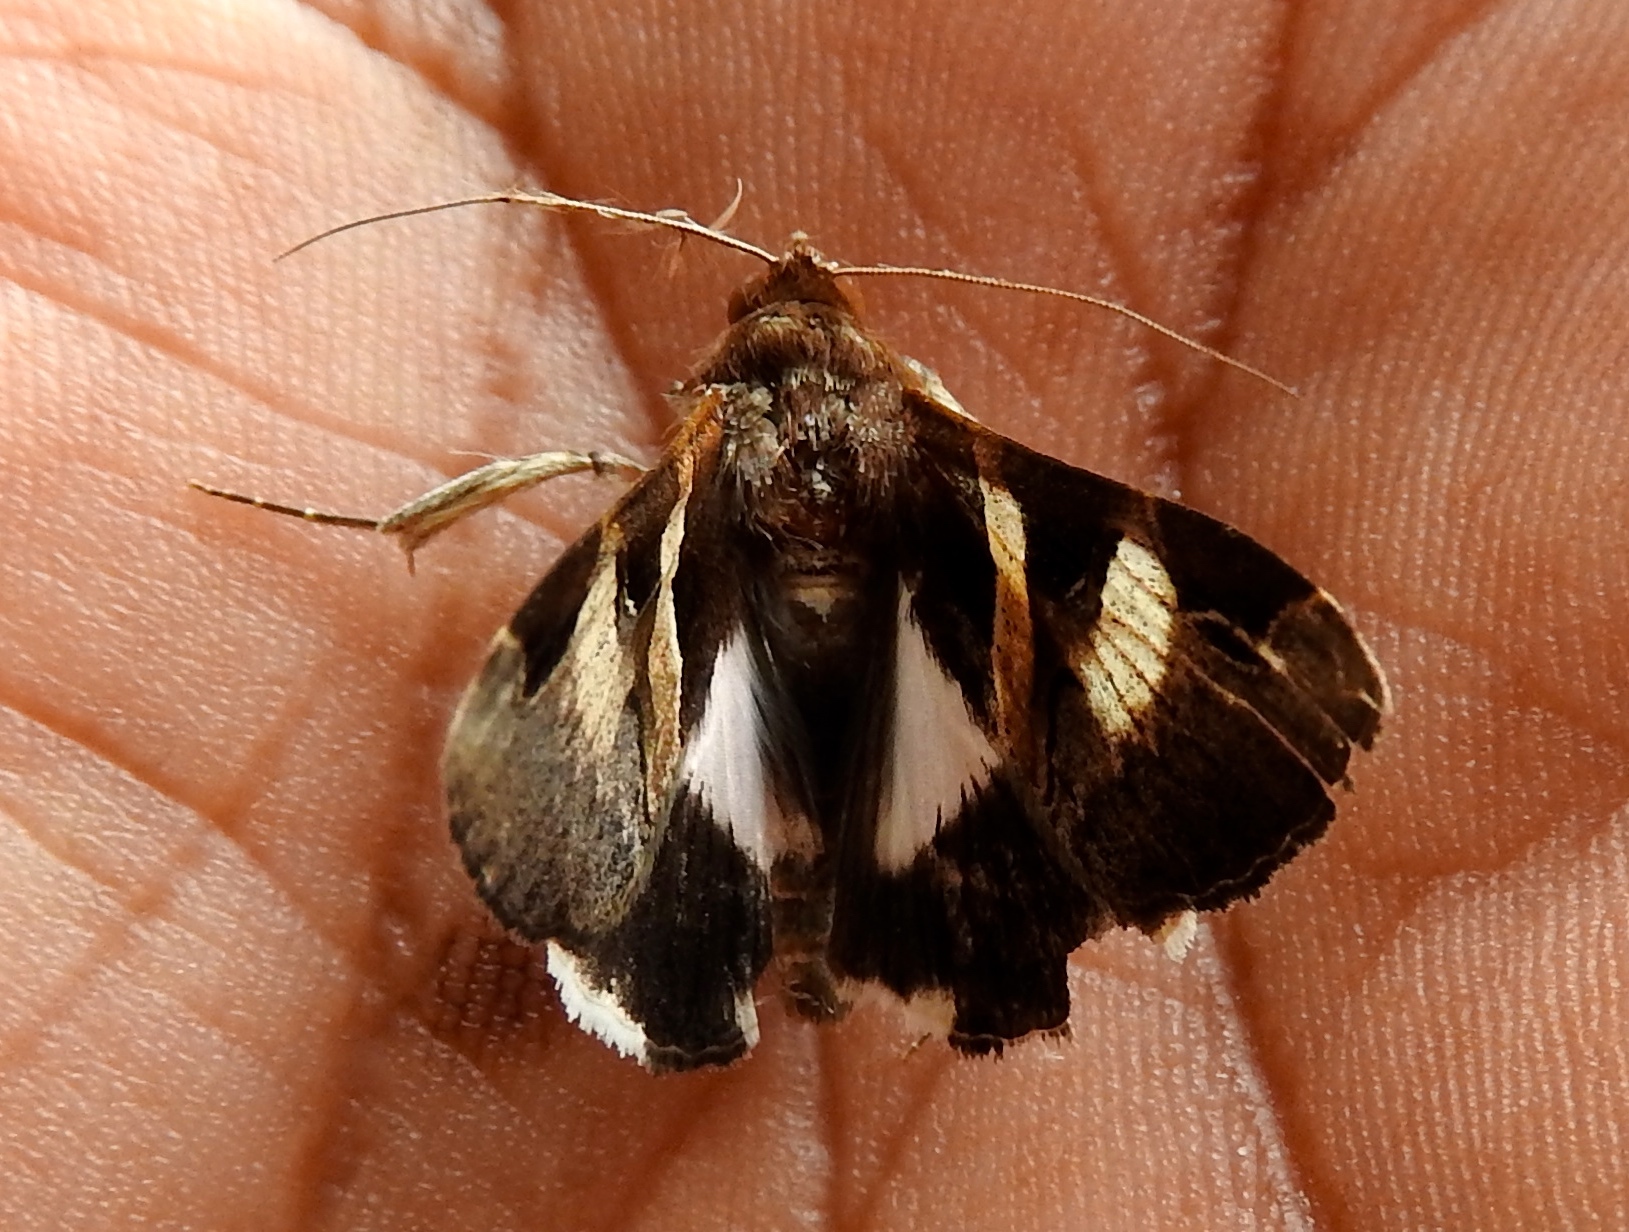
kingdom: Animalia
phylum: Arthropoda
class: Insecta
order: Lepidoptera
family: Erebidae
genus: Melipotis
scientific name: Melipotis fasciolaris
